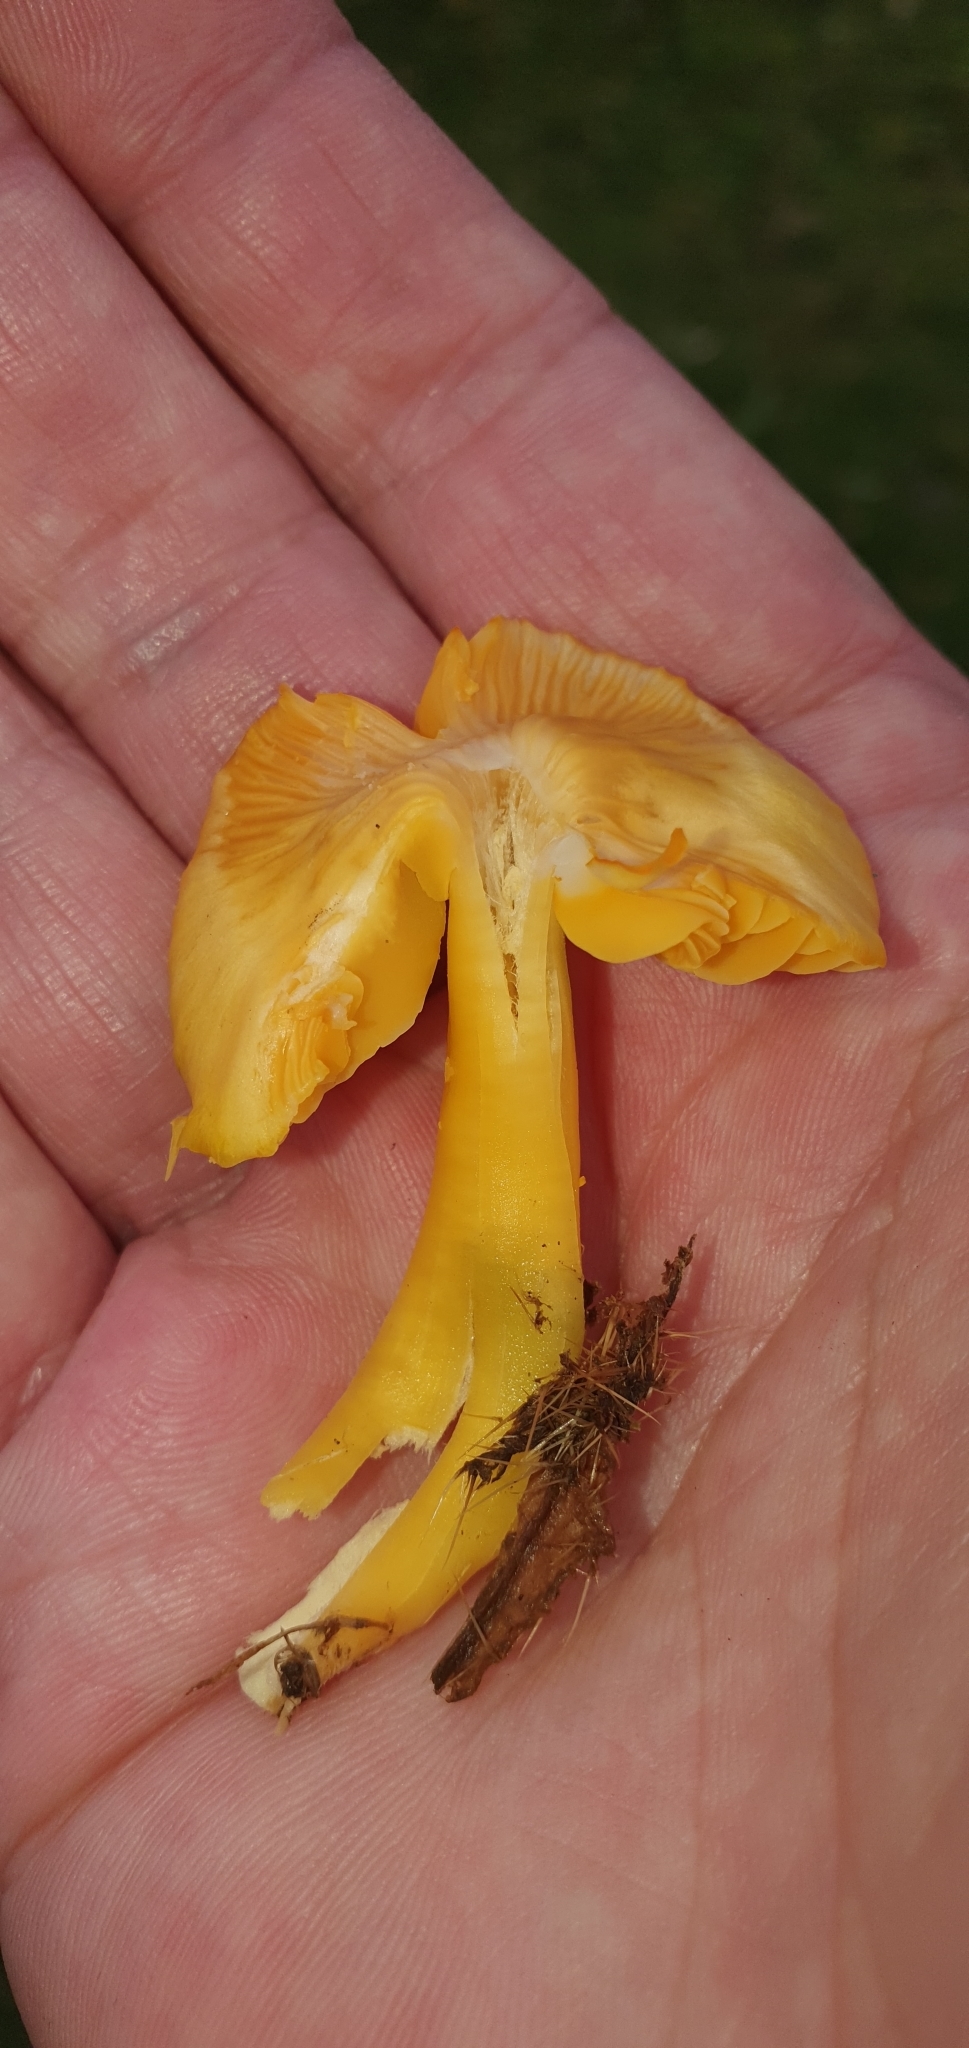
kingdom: Fungi
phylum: Basidiomycota
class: Agaricomycetes
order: Agaricales
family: Hygrophoraceae
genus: Gliophorus
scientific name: Gliophorus psittacinus
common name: Parrot wax-cap
